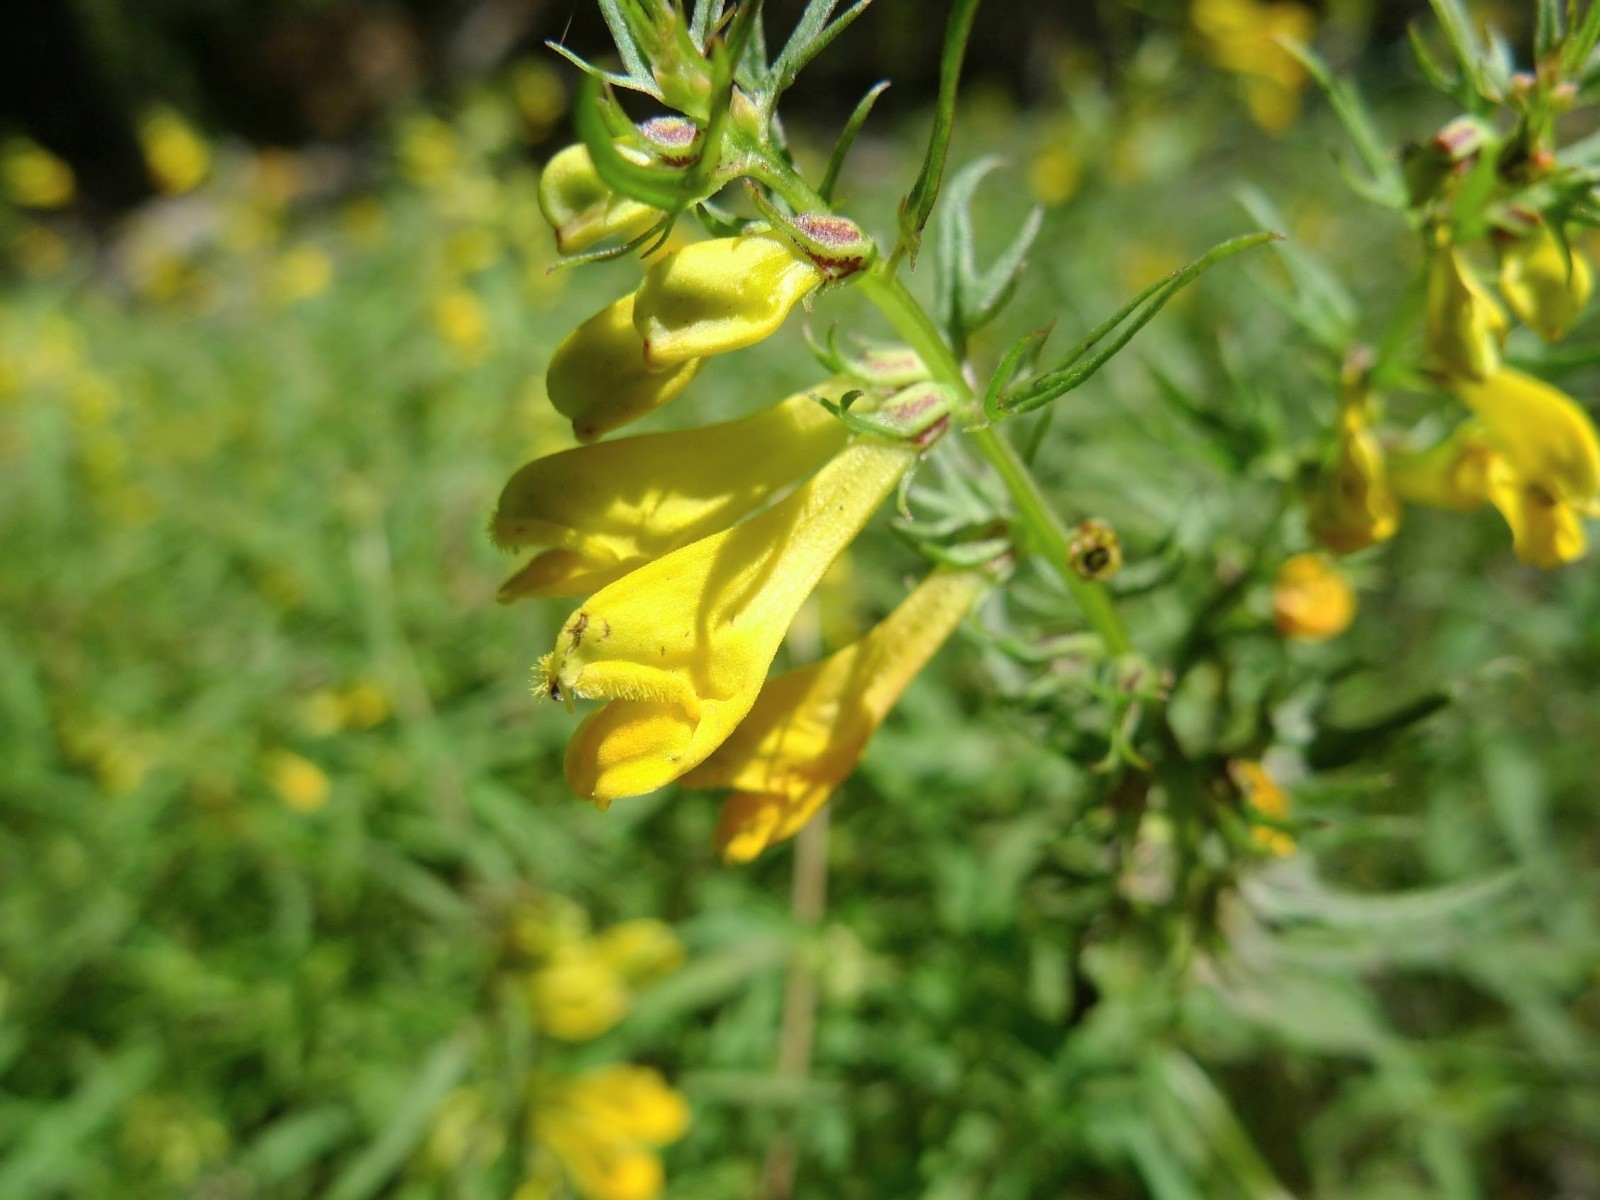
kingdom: Plantae
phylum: Tracheophyta
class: Magnoliopsida
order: Lamiales
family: Orobanchaceae
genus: Melampyrum
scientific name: Melampyrum pratense
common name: Common cow-wheat
